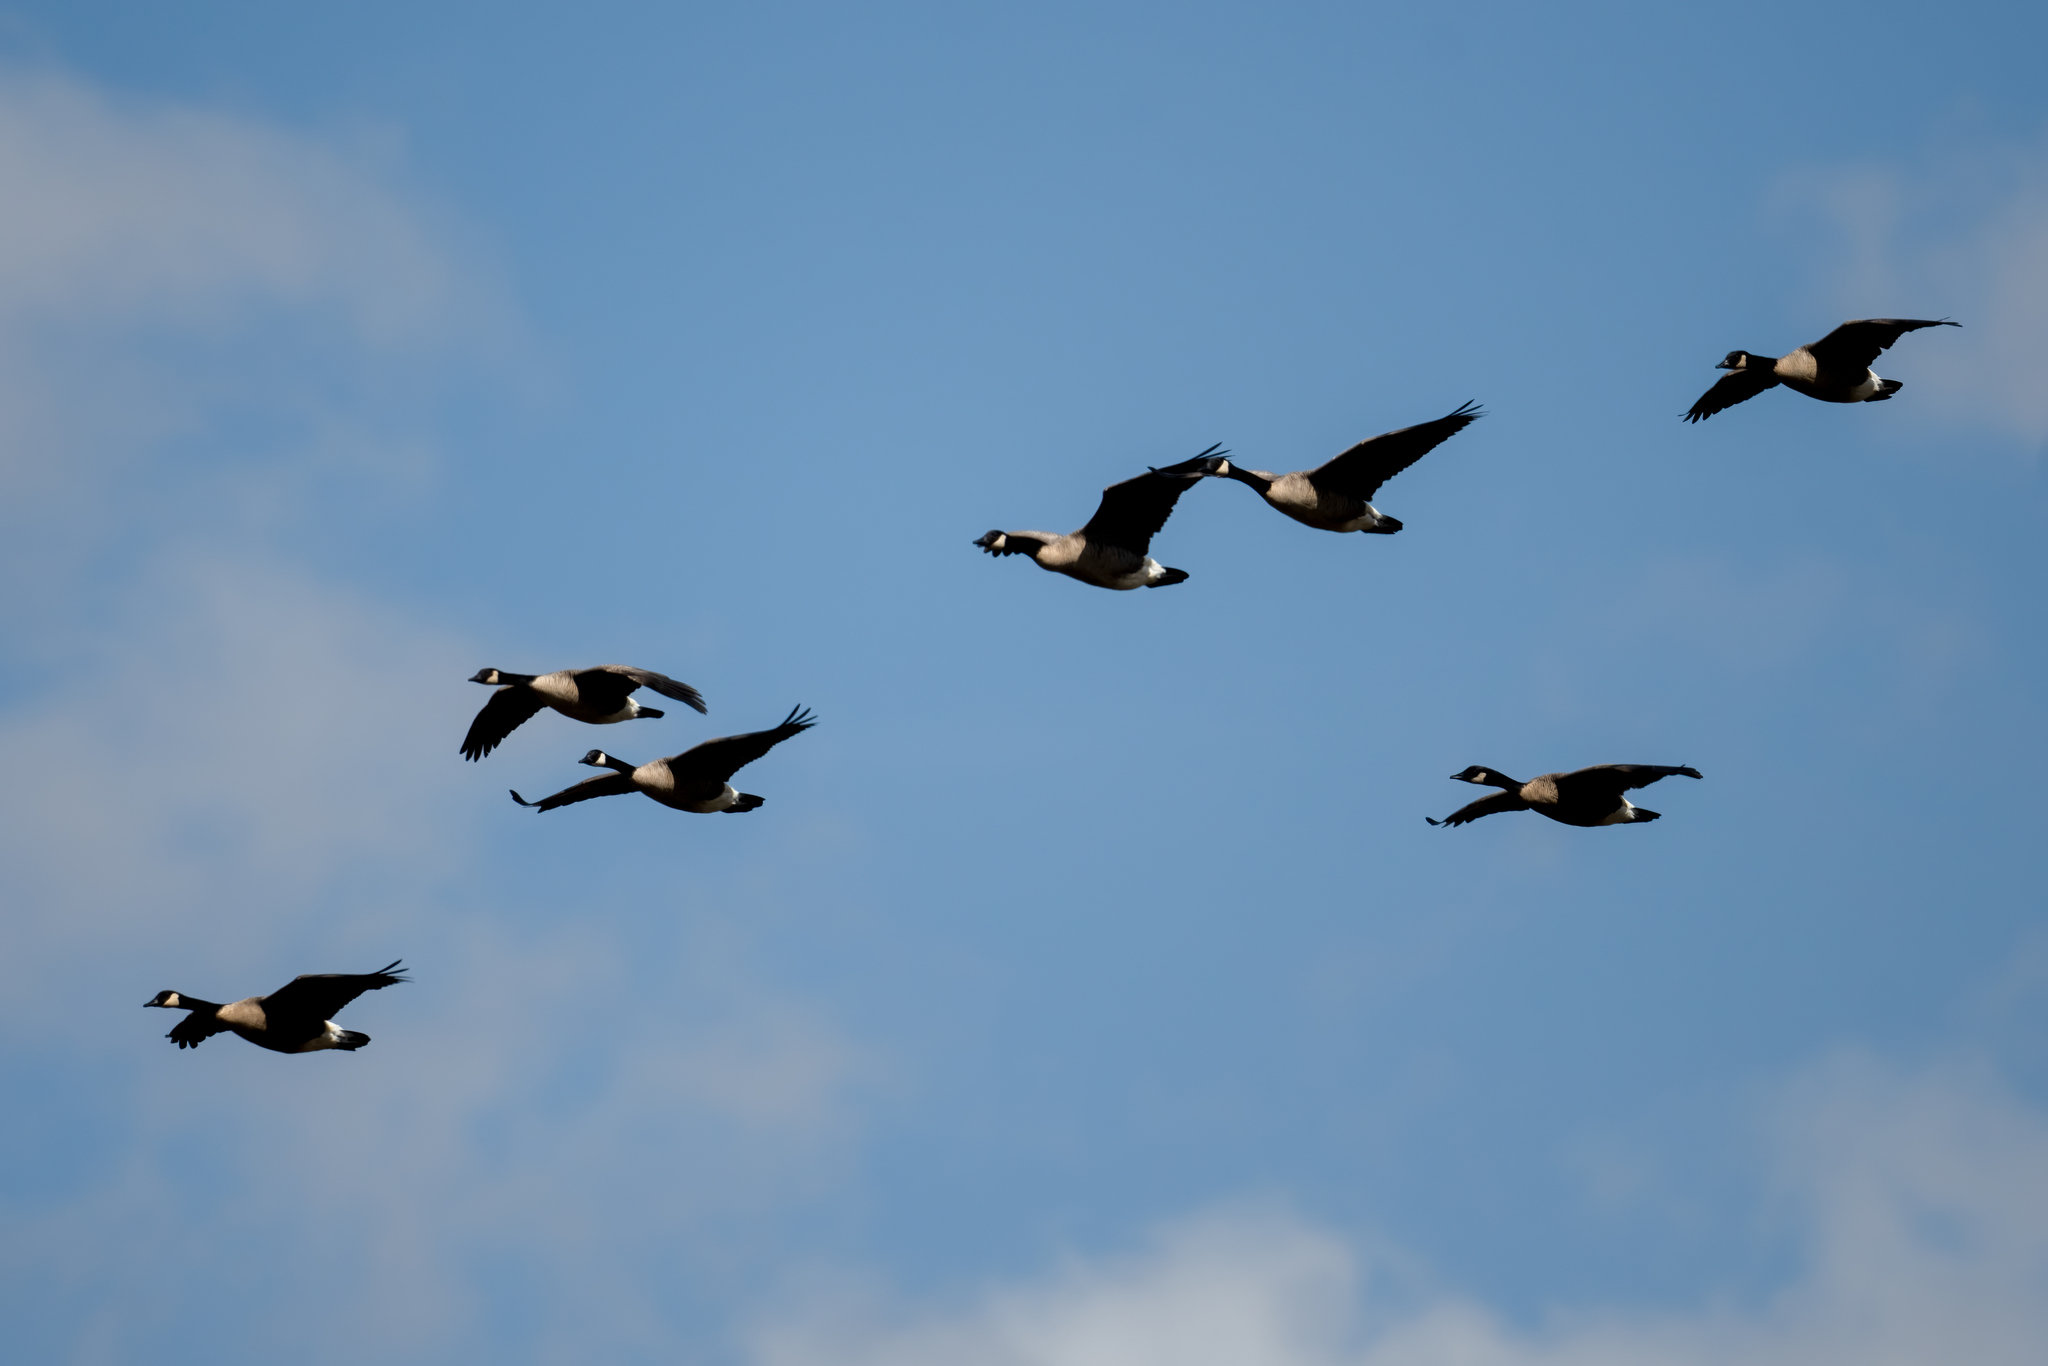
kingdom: Animalia
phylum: Chordata
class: Aves
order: Anseriformes
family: Anatidae
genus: Branta
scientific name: Branta canadensis
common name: Canada goose
